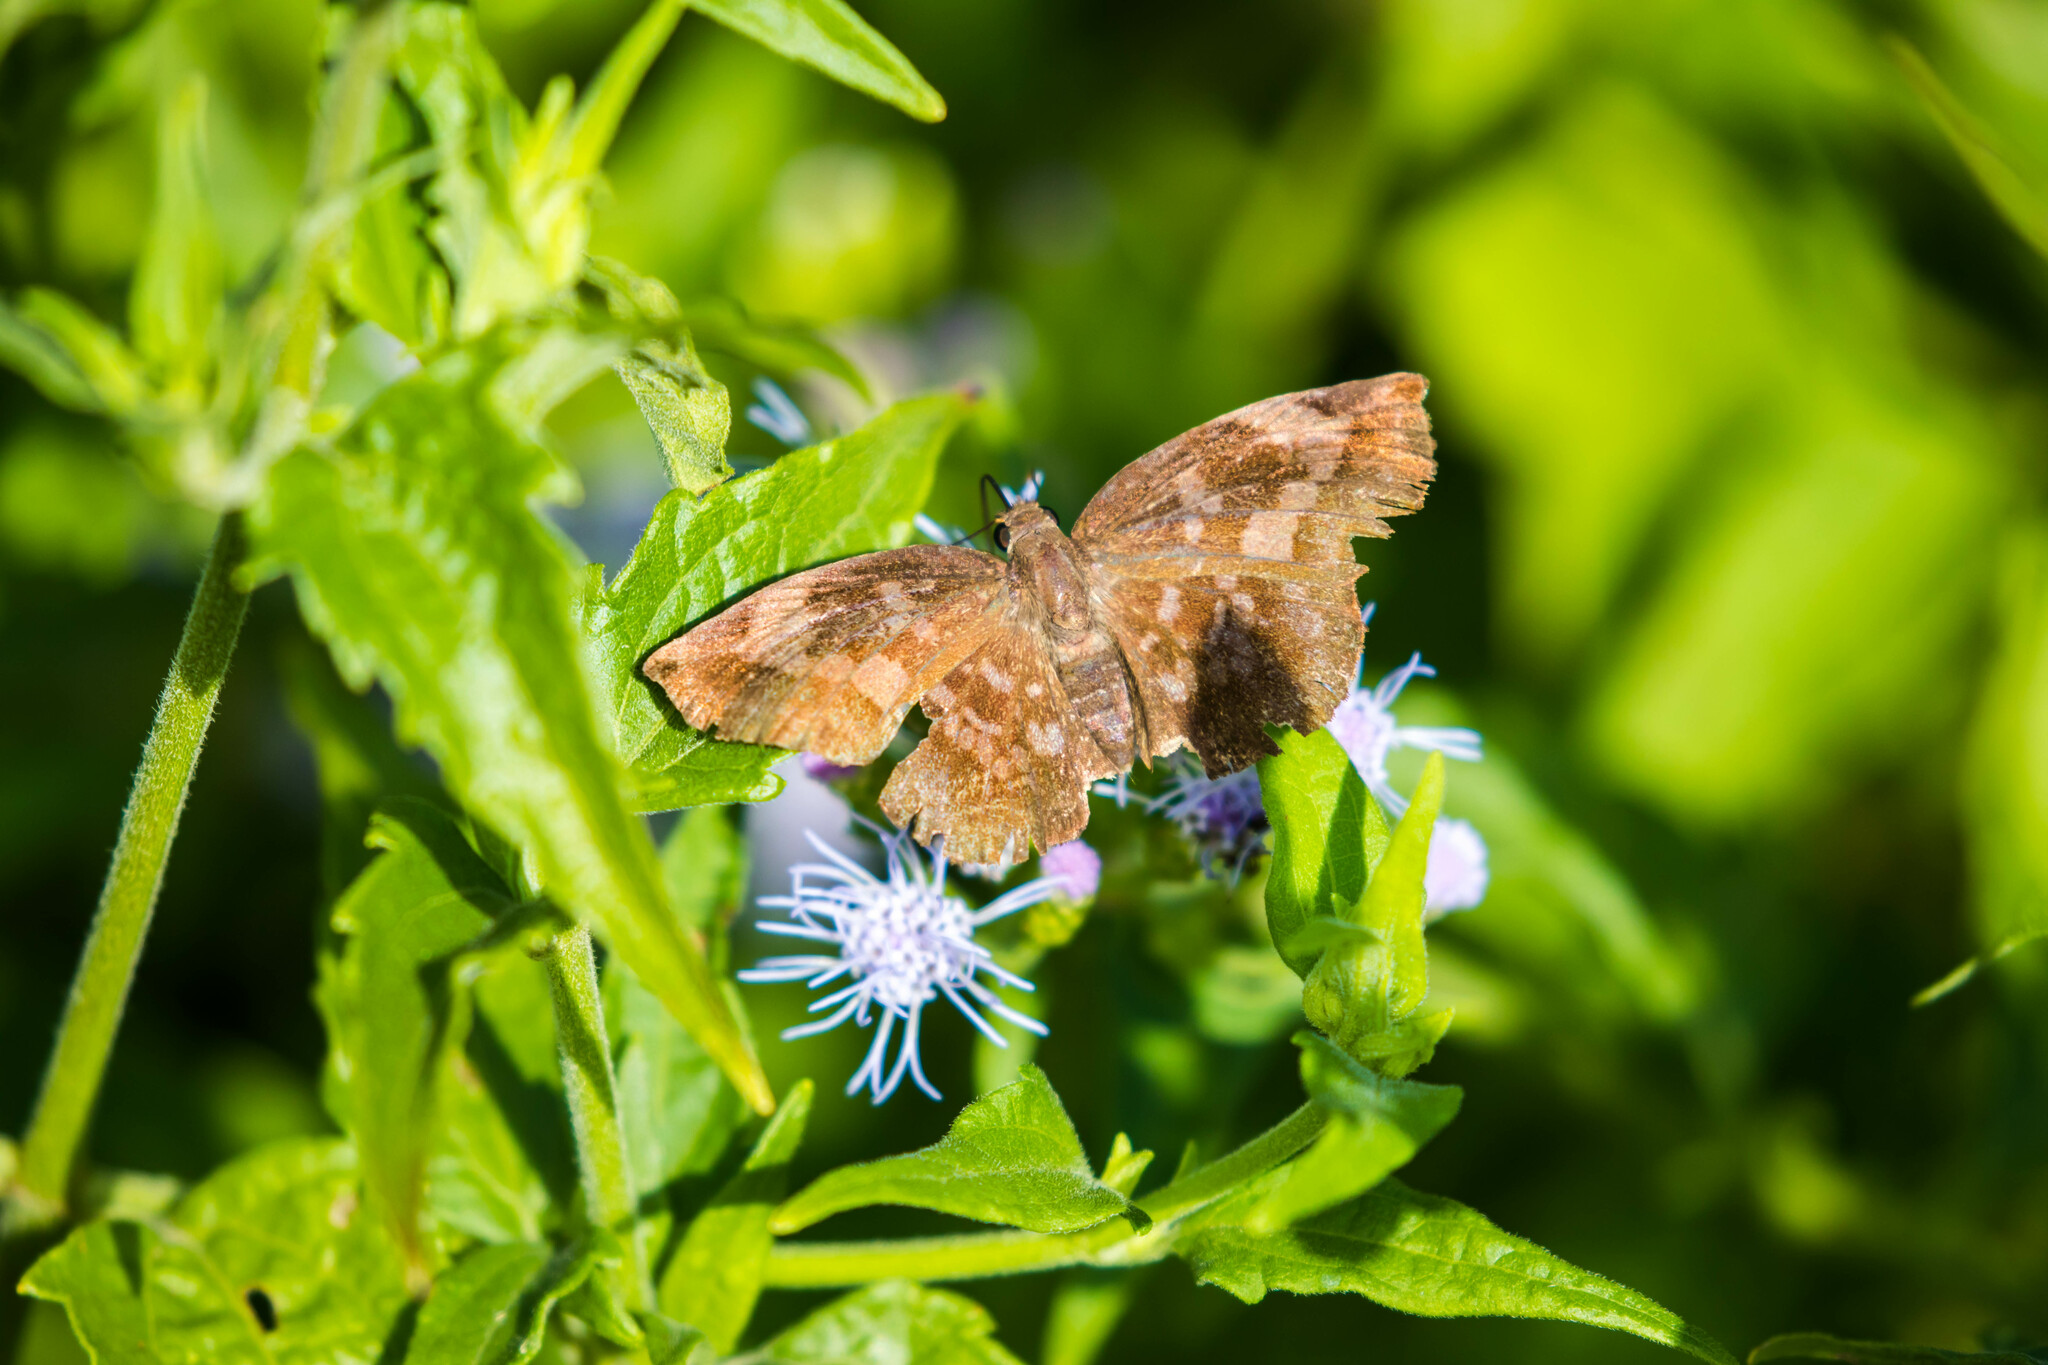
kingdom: Animalia
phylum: Arthropoda
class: Insecta
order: Lepidoptera
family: Hesperiidae
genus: Achlyodes
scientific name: Achlyodes thraso
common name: Sickle-winged skipper
